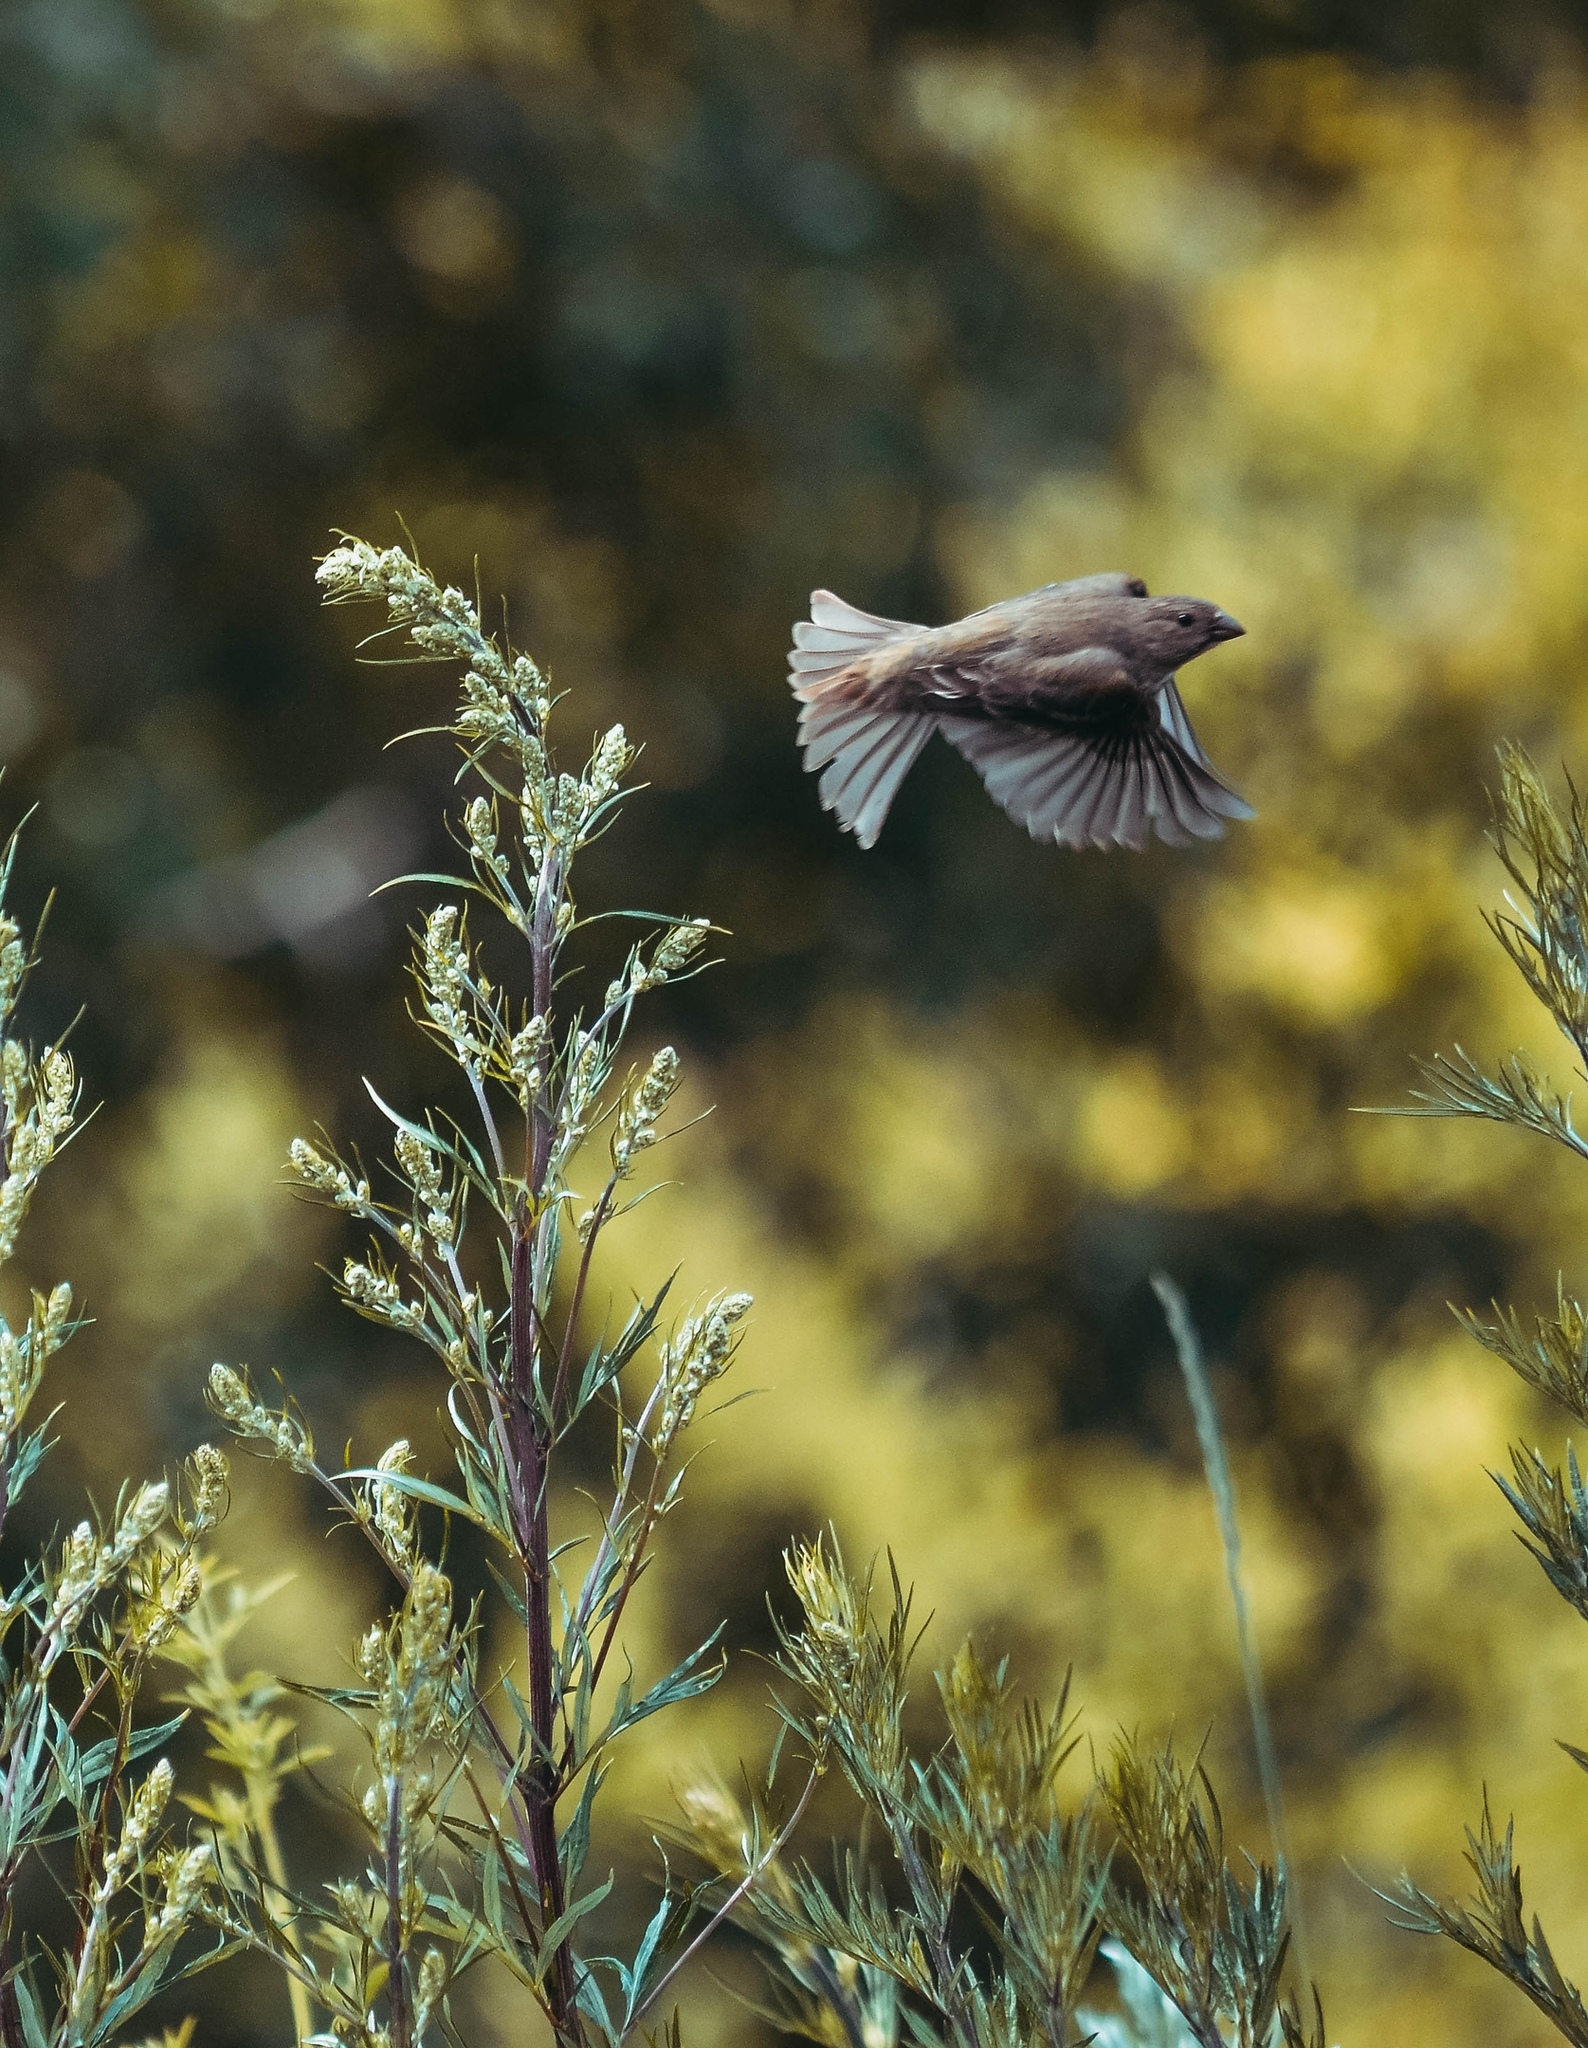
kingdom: Animalia
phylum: Chordata
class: Aves
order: Passeriformes
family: Fringillidae
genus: Carpodacus
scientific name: Carpodacus erythrinus
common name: Common rosefinch
